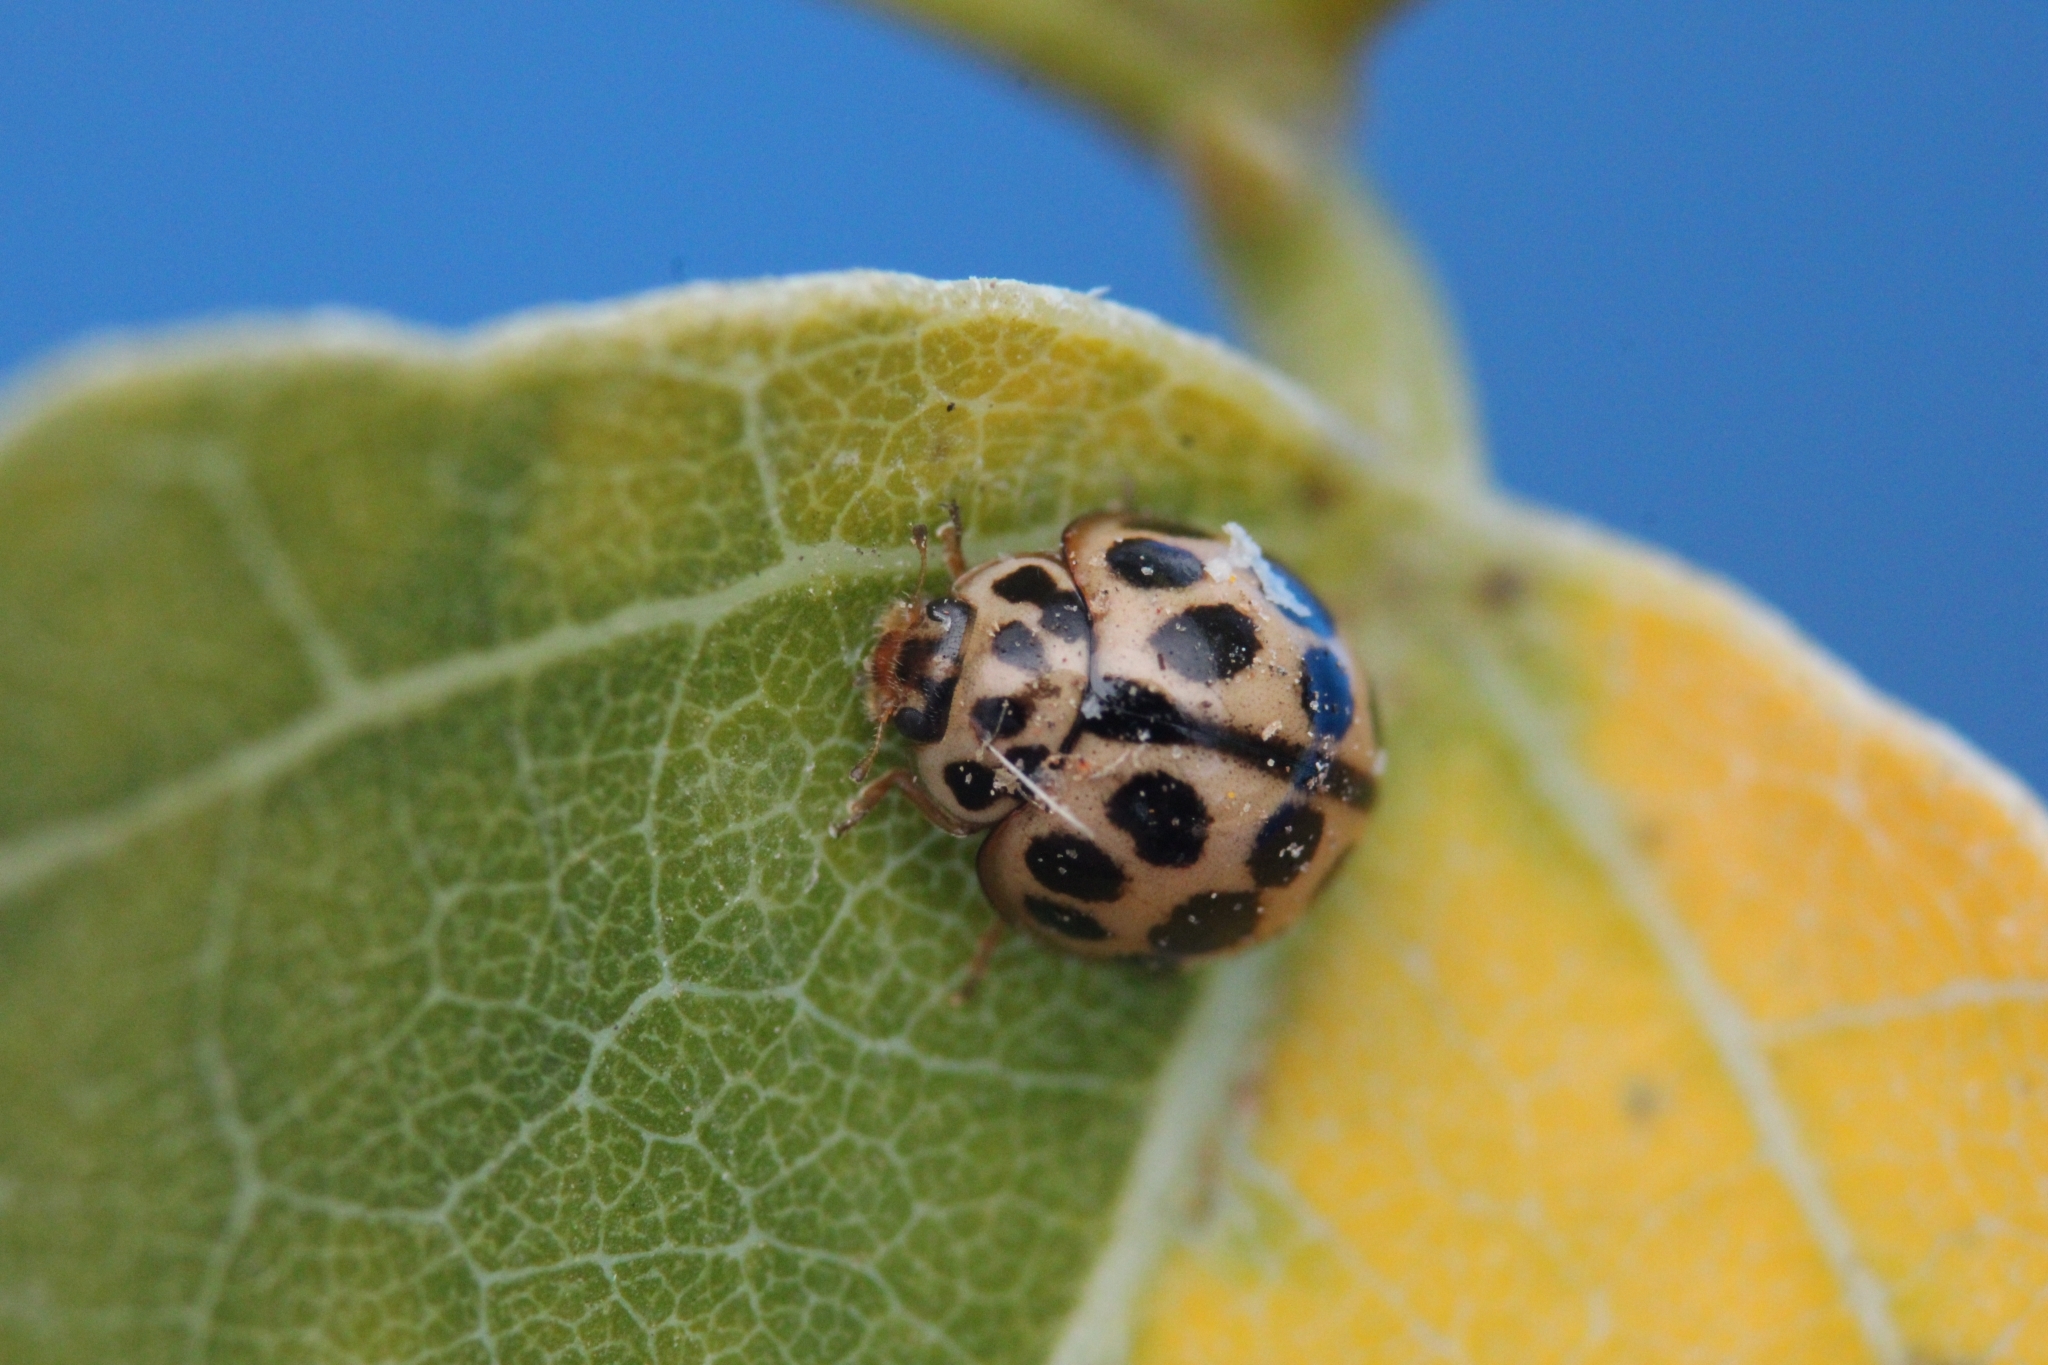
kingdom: Animalia
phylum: Arthropoda
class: Insecta
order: Coleoptera
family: Coccinellidae
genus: Bulaea
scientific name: Bulaea
